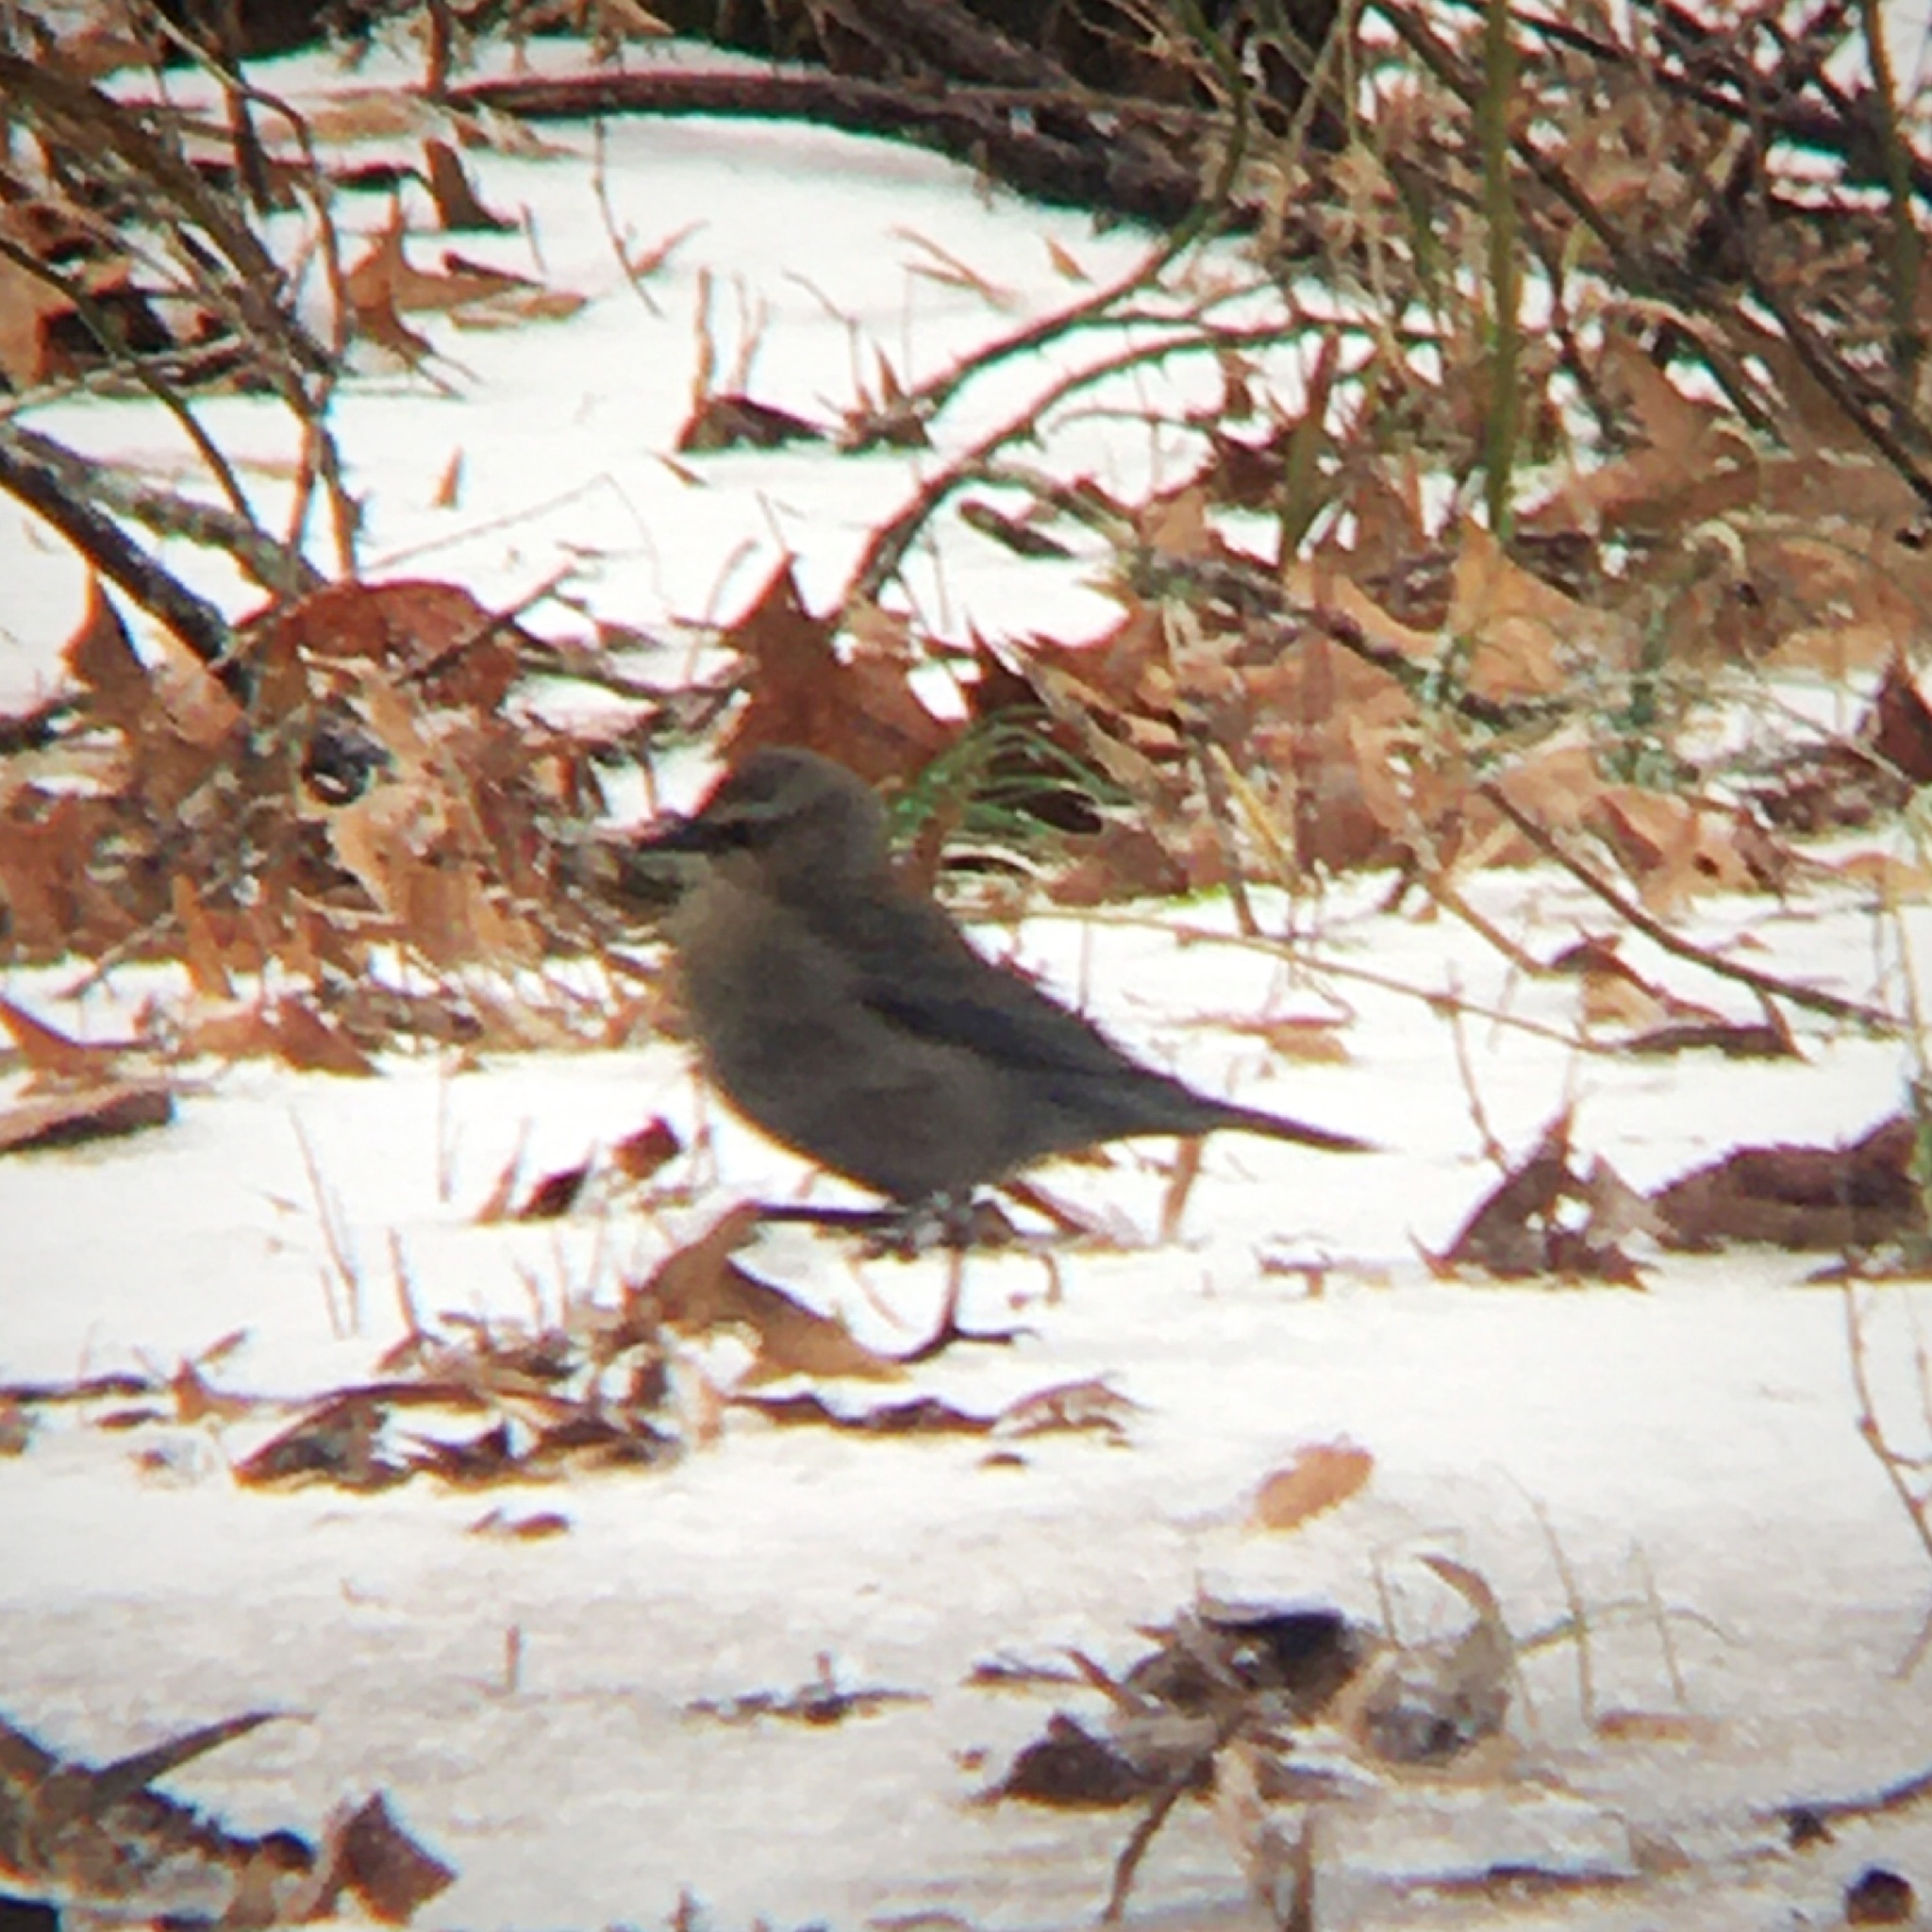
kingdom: Animalia
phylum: Chordata
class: Aves
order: Passeriformes
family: Icteridae
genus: Euphagus
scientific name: Euphagus carolinus
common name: Rusty blackbird
